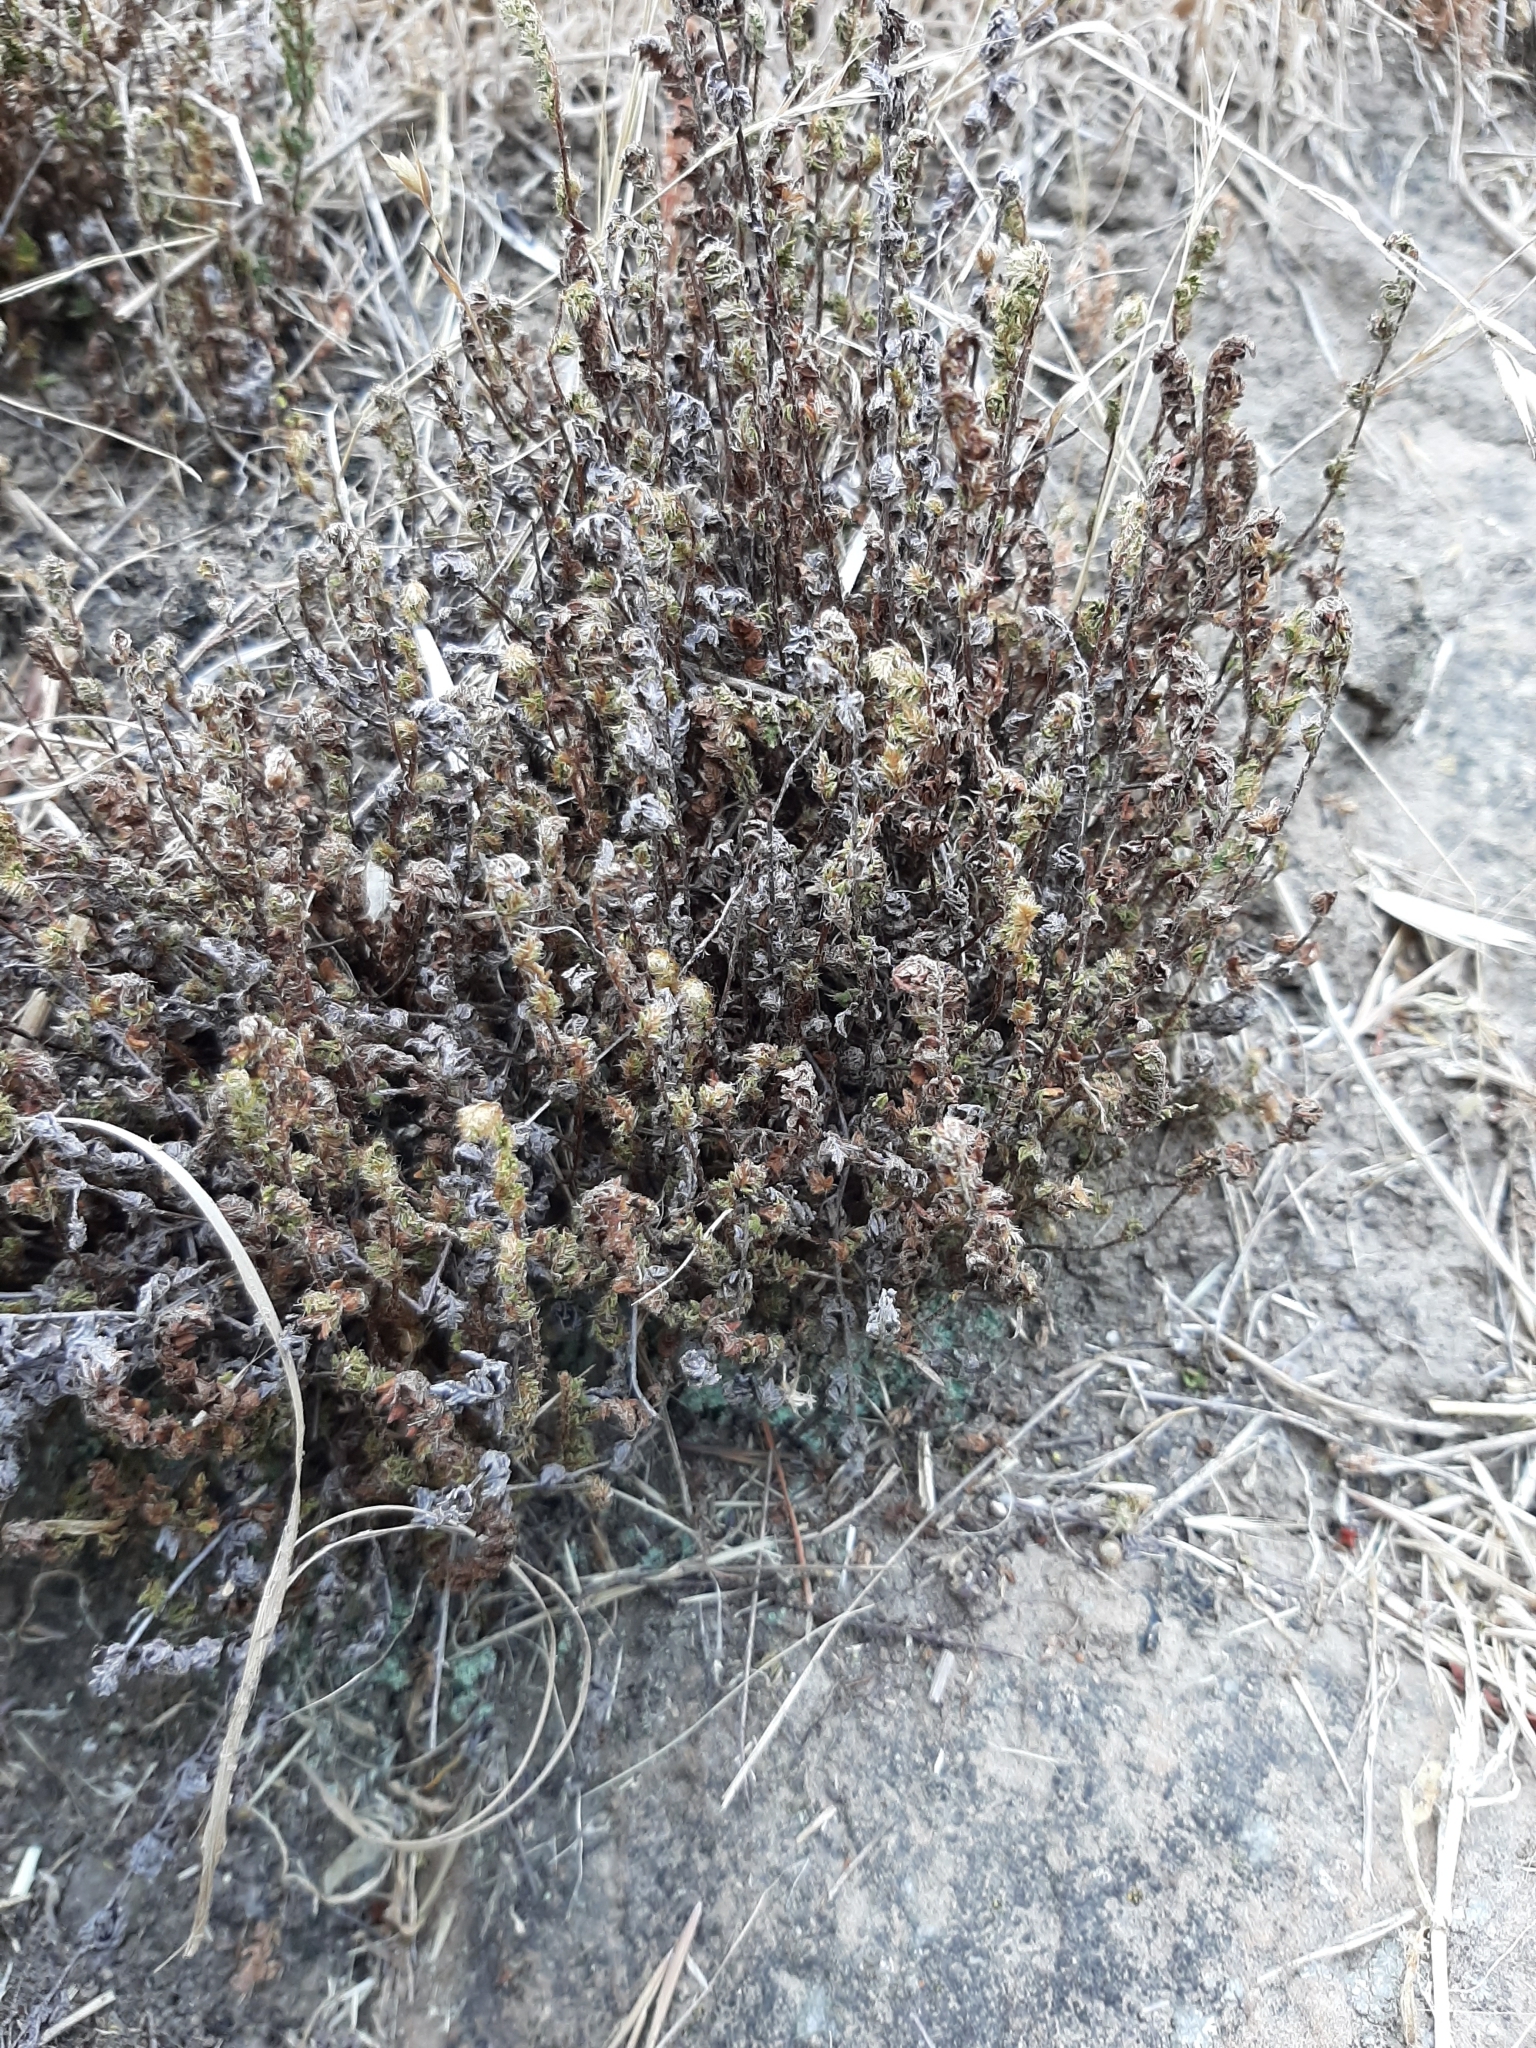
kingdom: Plantae
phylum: Tracheophyta
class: Polypodiopsida
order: Polypodiales
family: Pteridaceae
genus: Cheilanthes
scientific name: Cheilanthes distans
